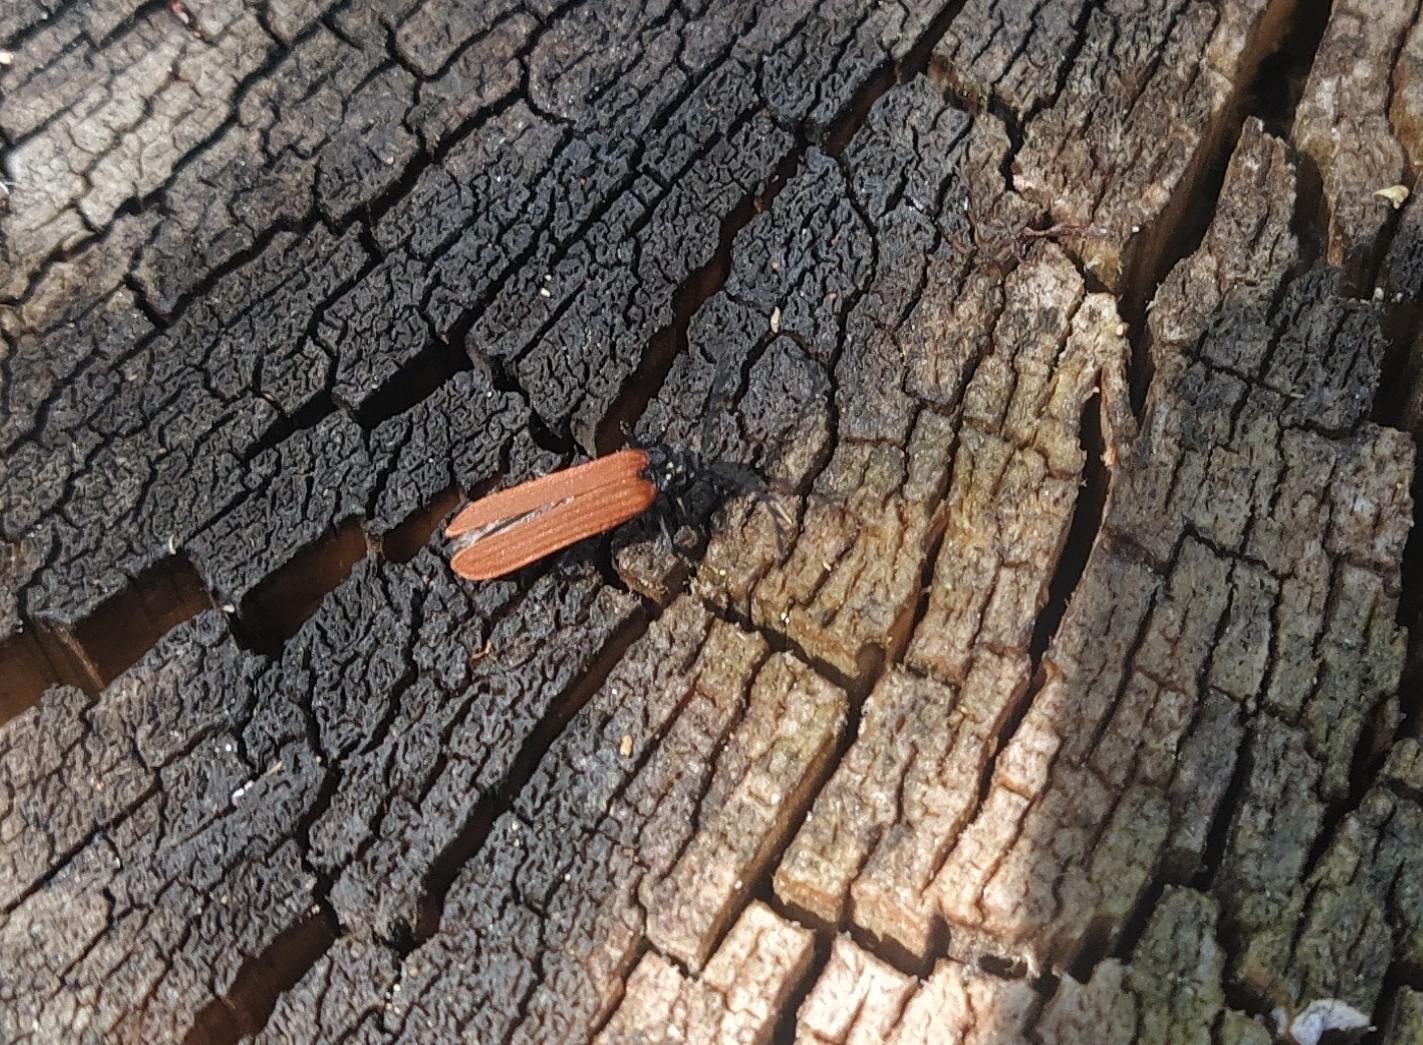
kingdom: Animalia
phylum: Arthropoda
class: Insecta
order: Coleoptera
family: Lycidae
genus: Porrostoma
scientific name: Porrostoma rufipenne
